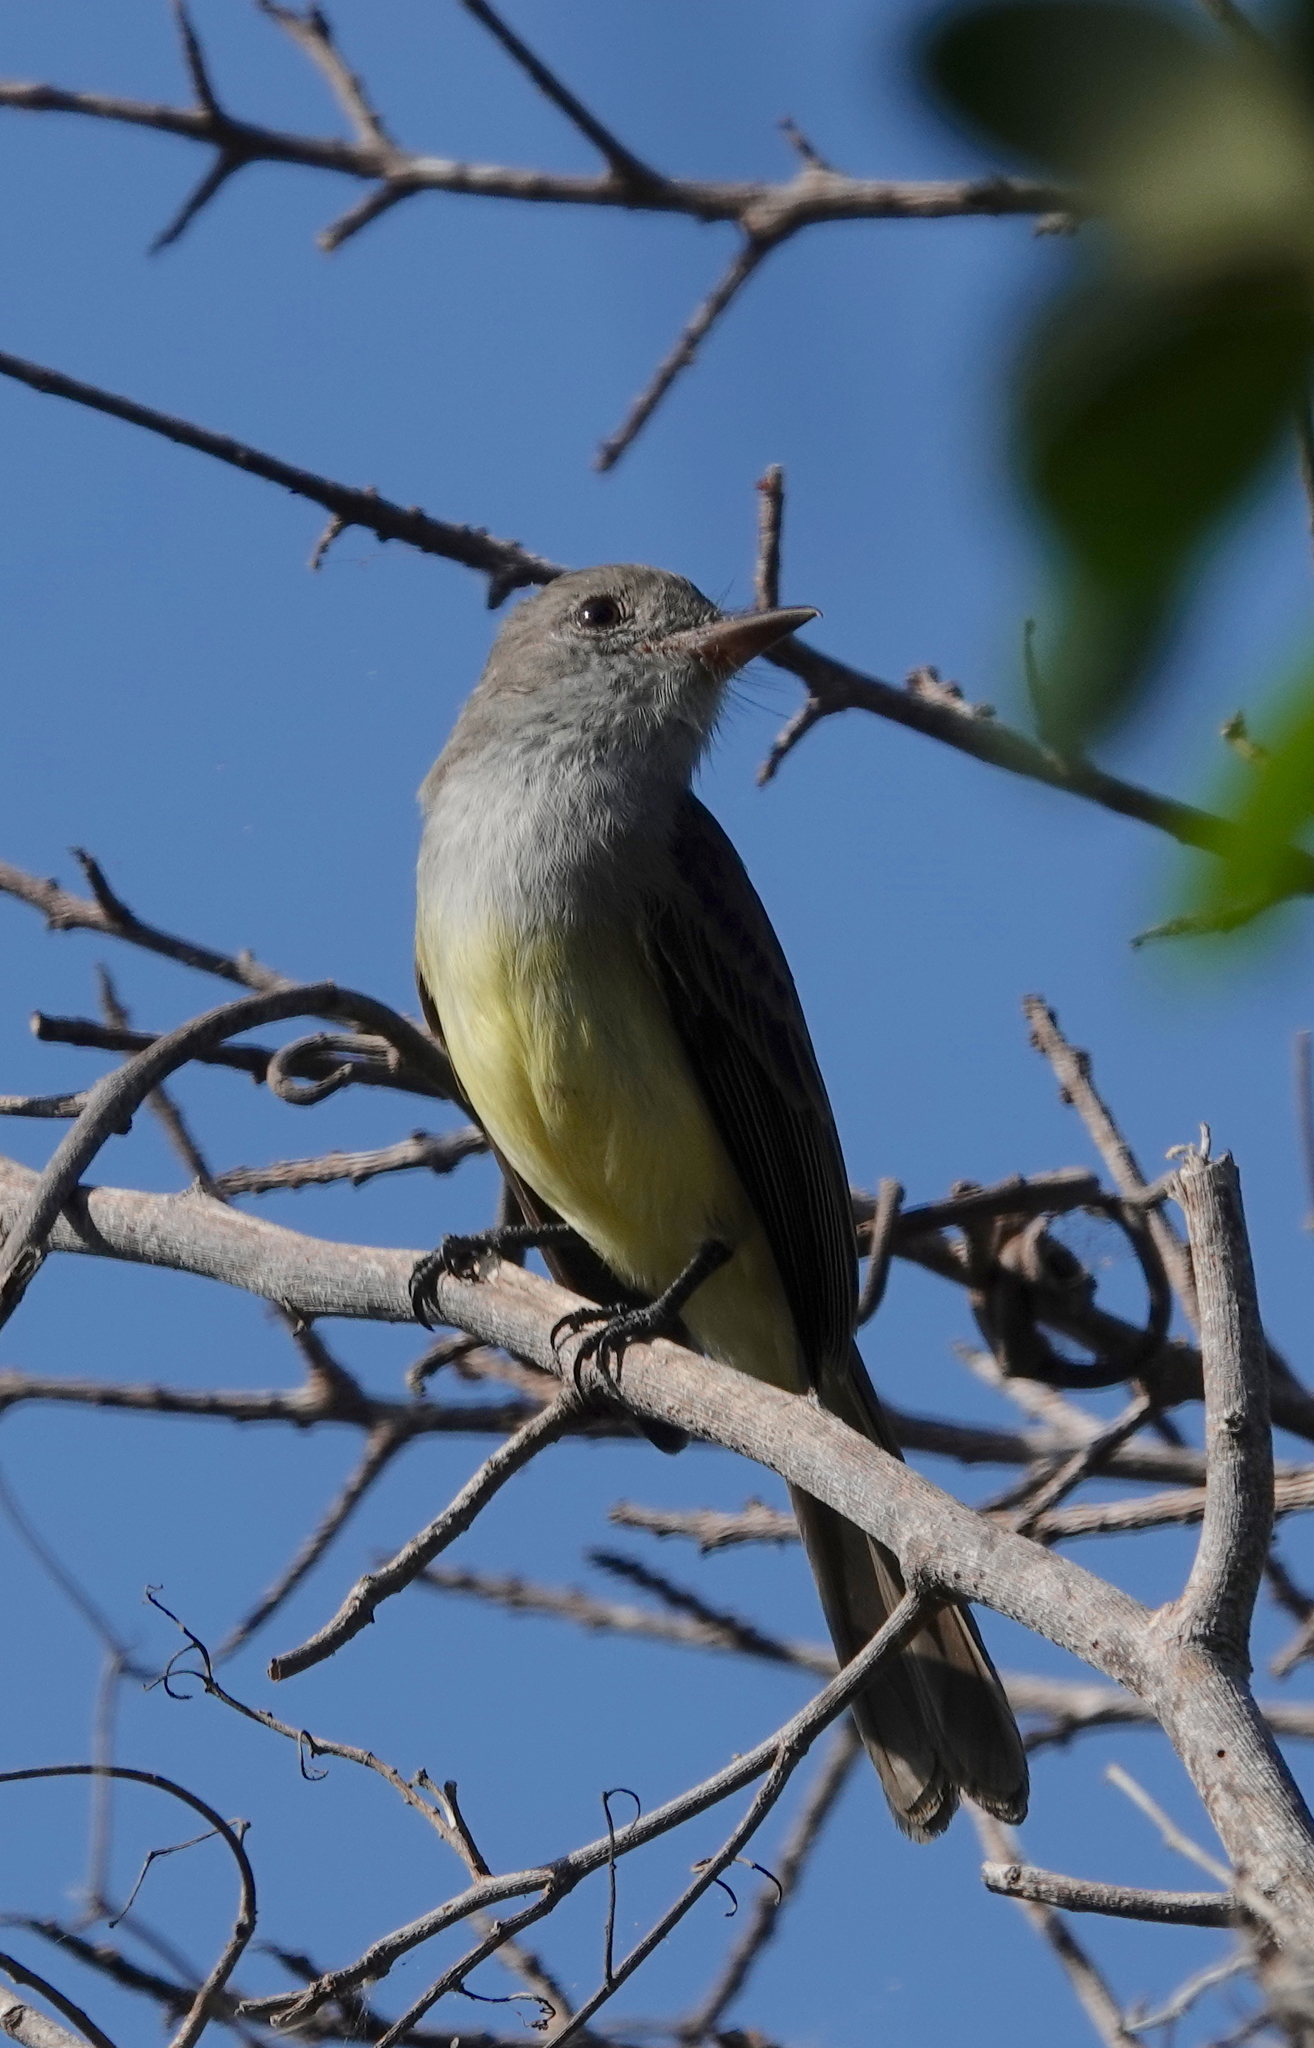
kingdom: Animalia
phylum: Chordata
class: Aves
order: Passeriformes
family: Tyrannidae
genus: Myiarchus
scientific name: Myiarchus panamensis
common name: Panama flycatcher
